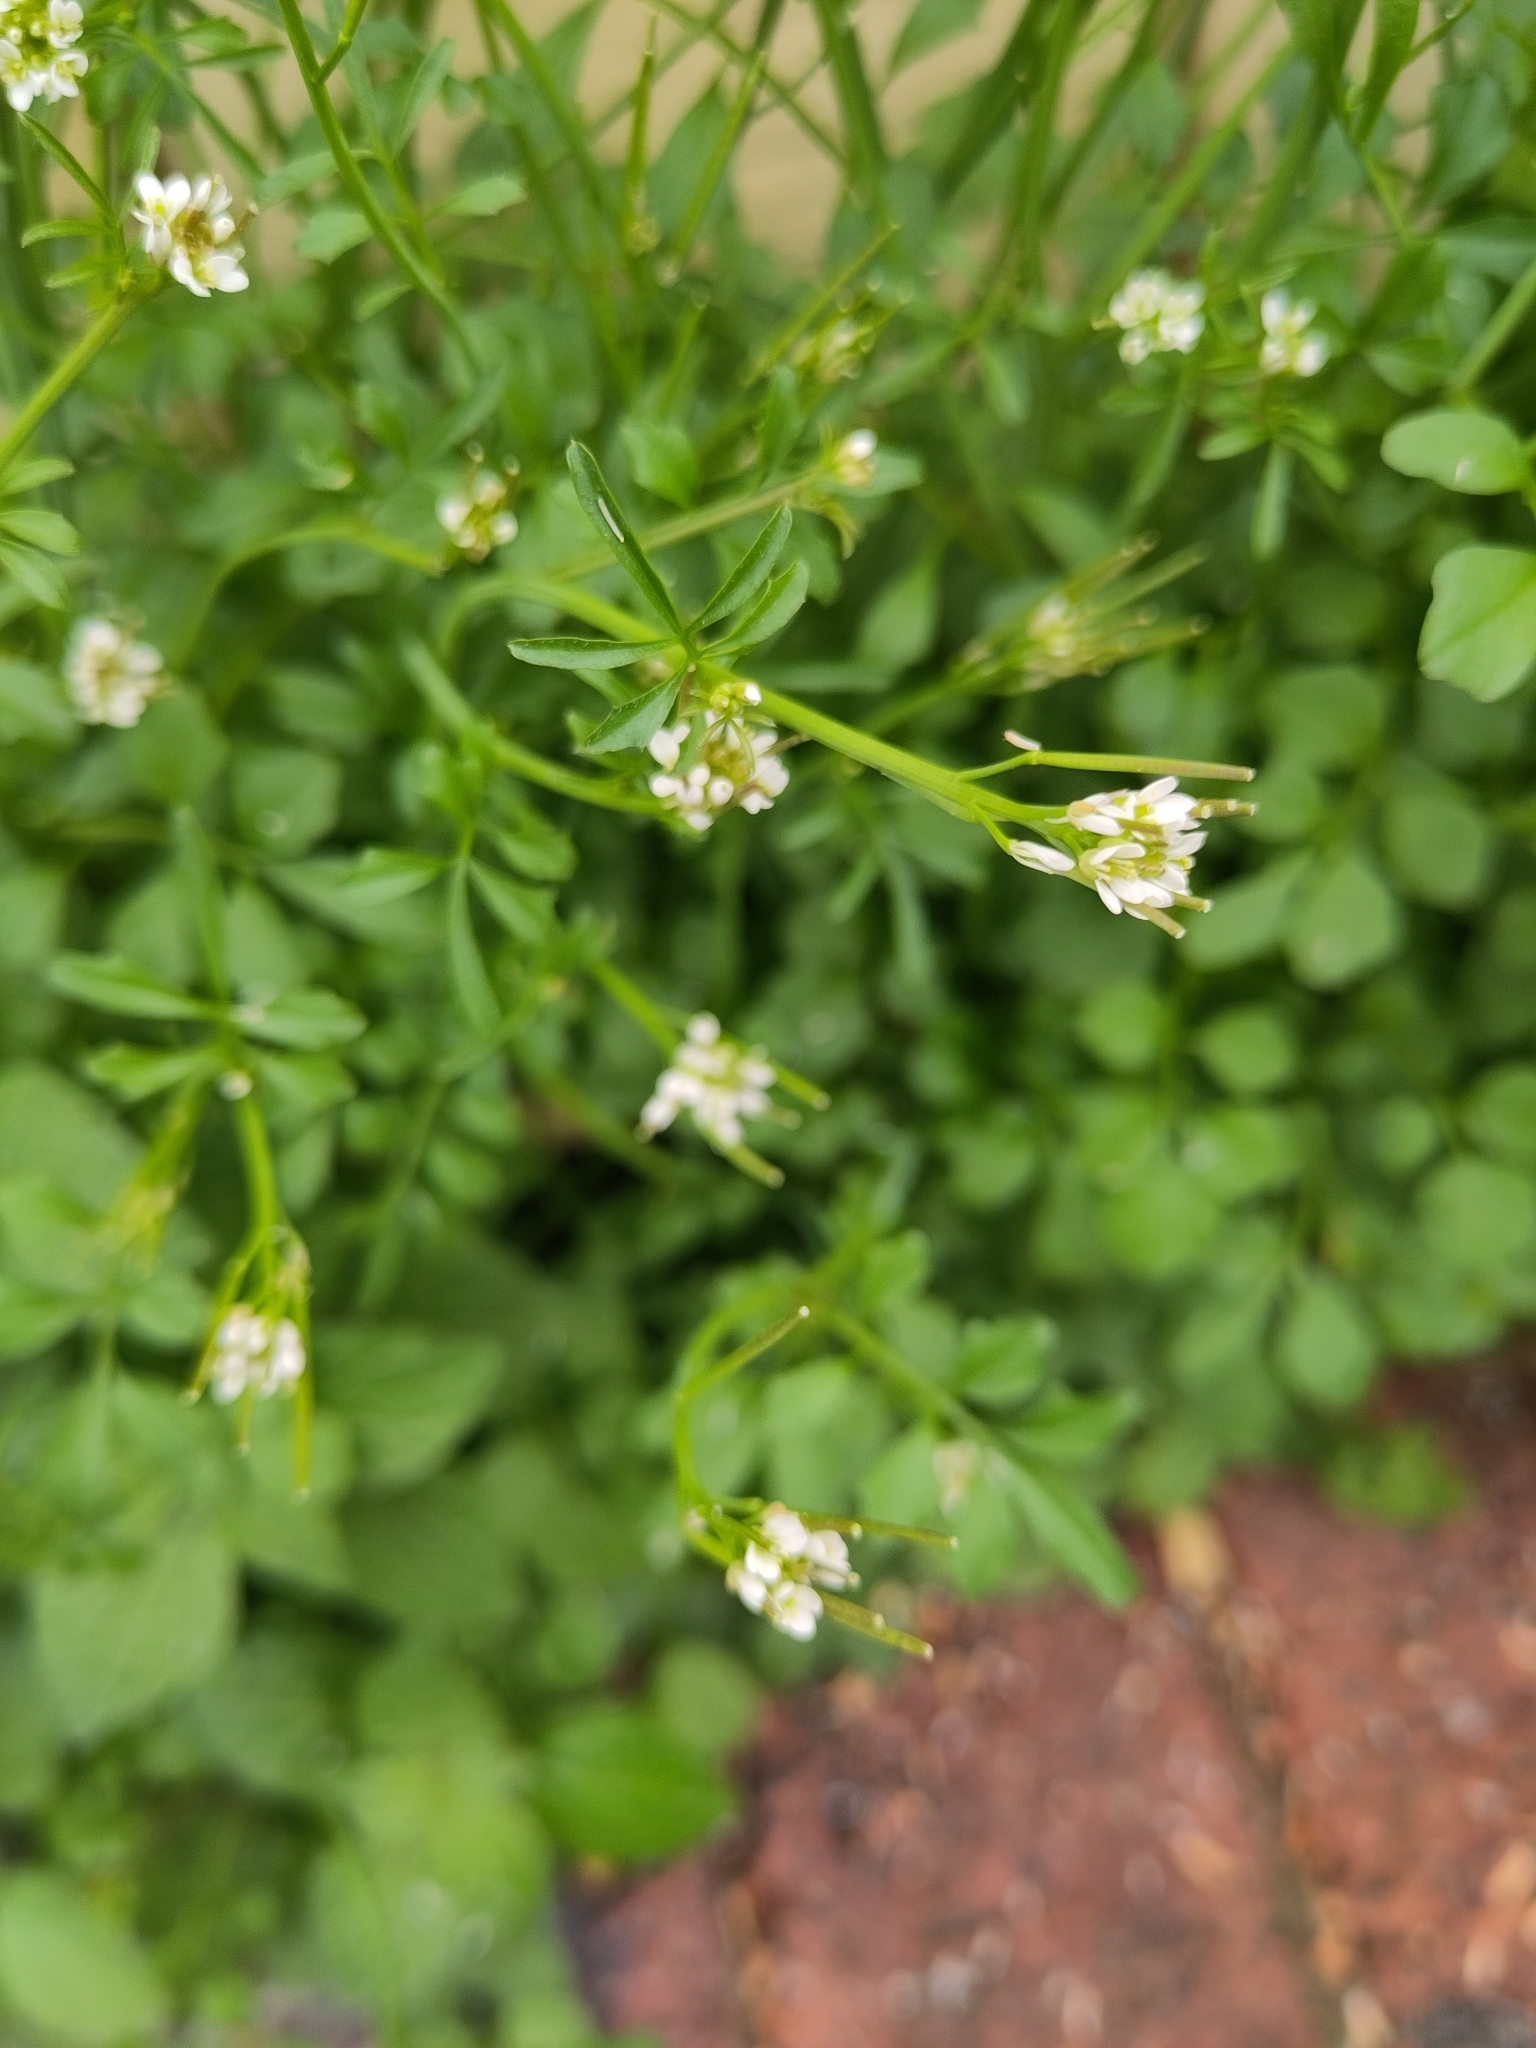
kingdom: Plantae
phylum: Tracheophyta
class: Magnoliopsida
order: Brassicales
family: Brassicaceae
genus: Cardamine
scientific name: Cardamine hirsuta
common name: Hairy bittercress
